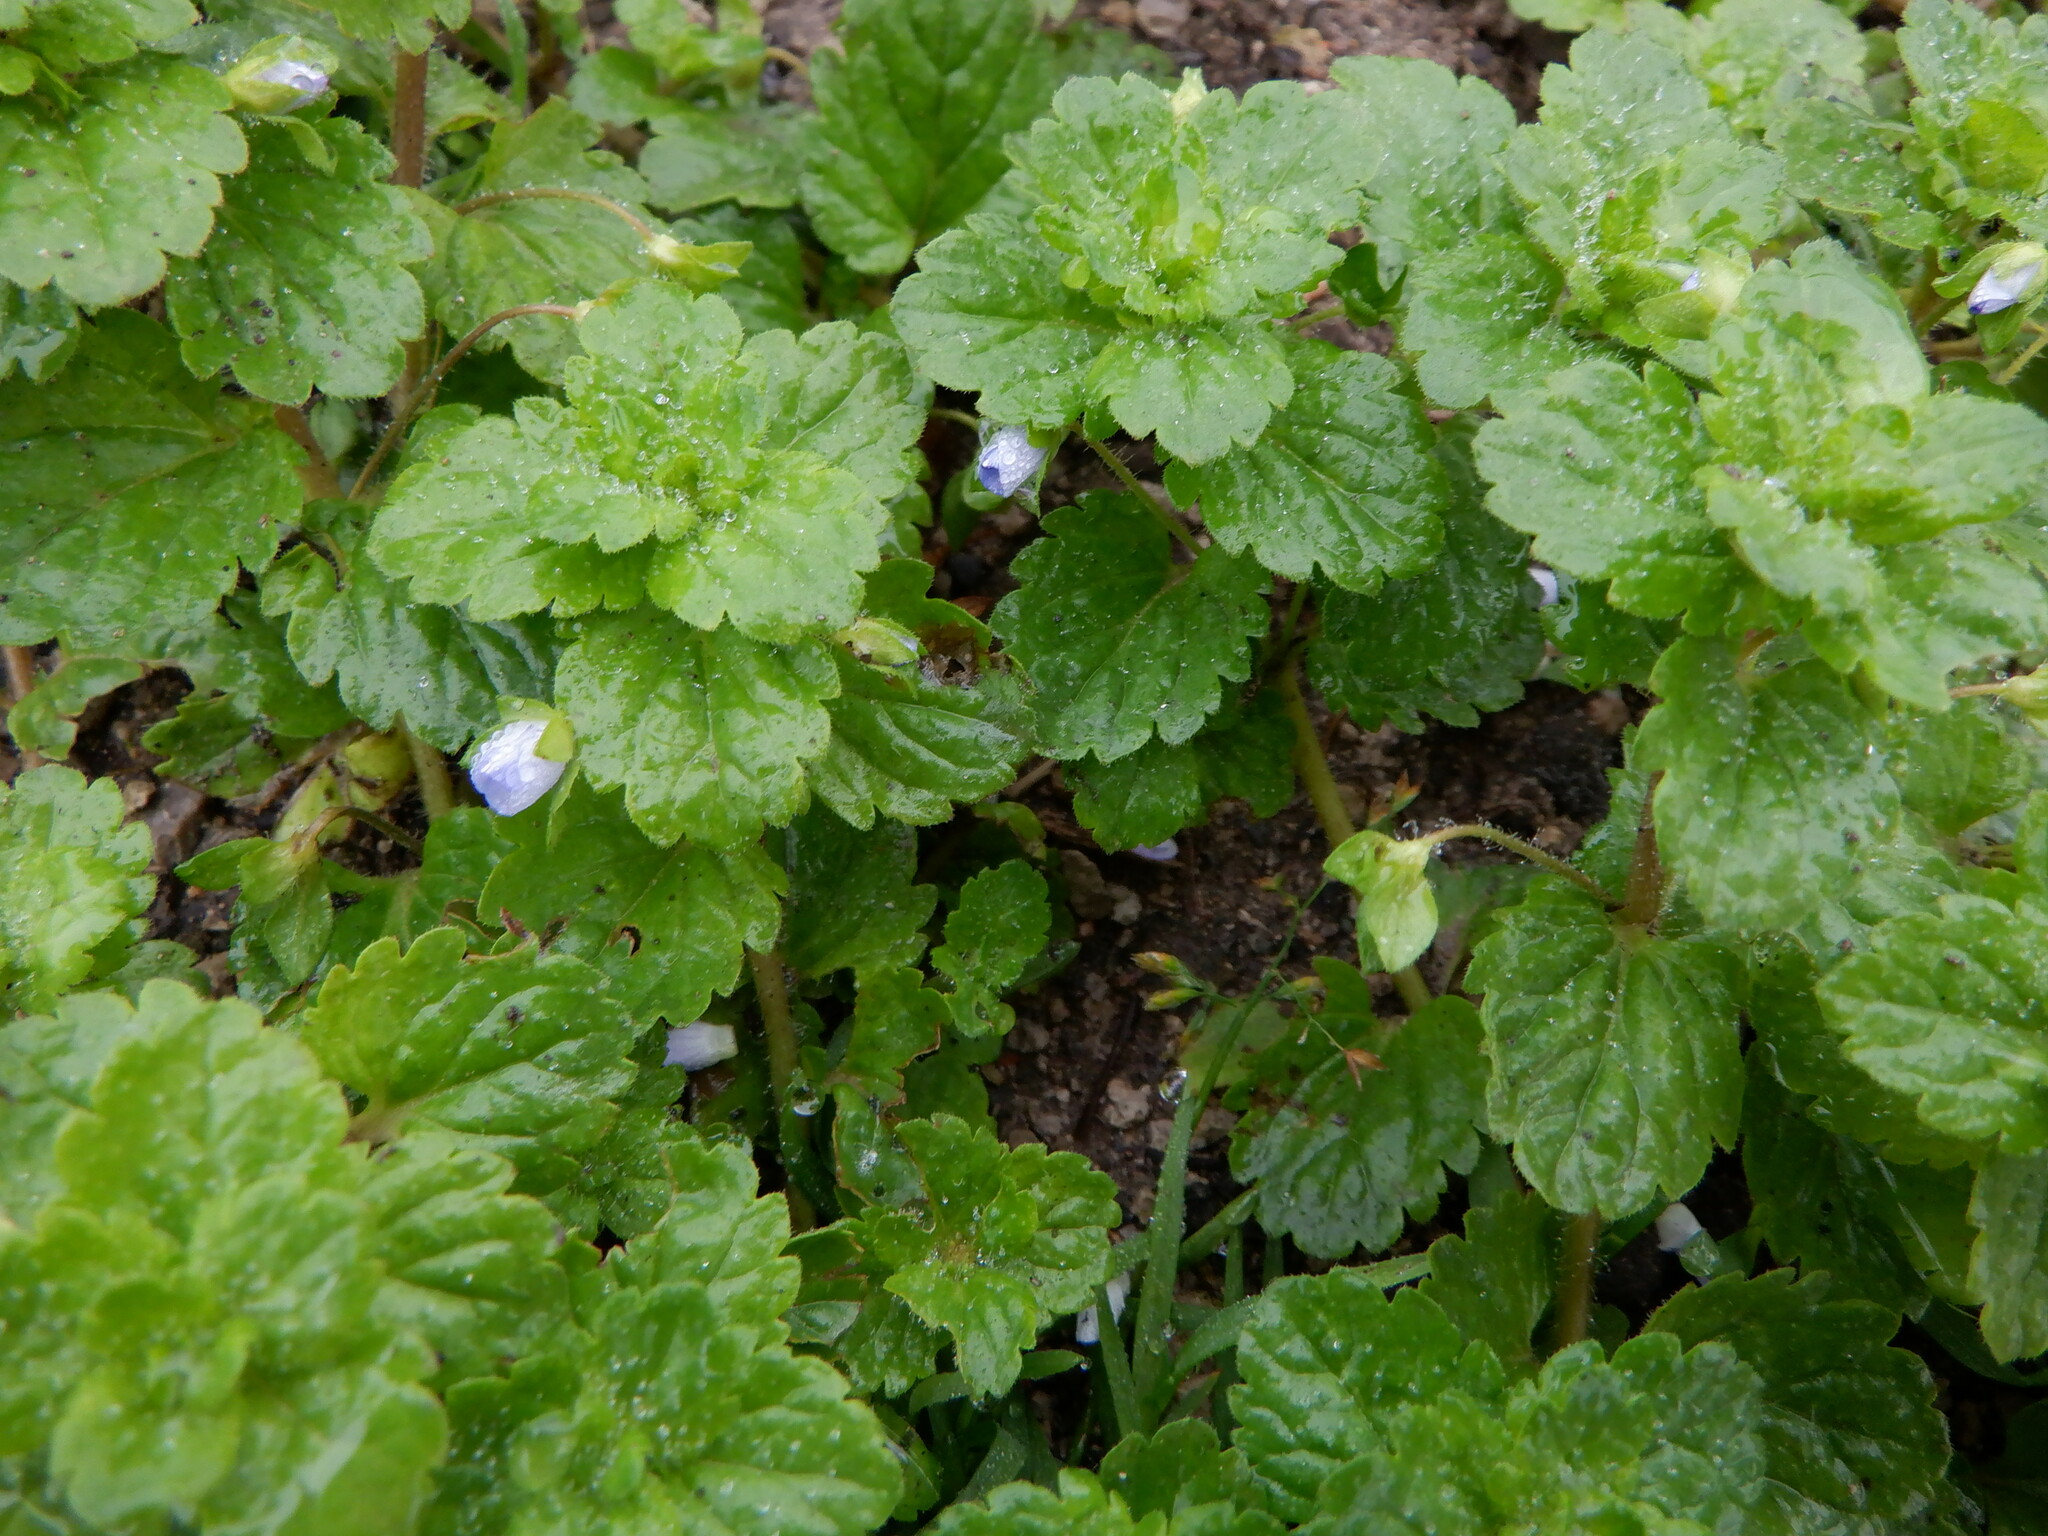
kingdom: Plantae
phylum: Tracheophyta
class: Magnoliopsida
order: Lamiales
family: Plantaginaceae
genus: Veronica
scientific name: Veronica persica
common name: Common field-speedwell
